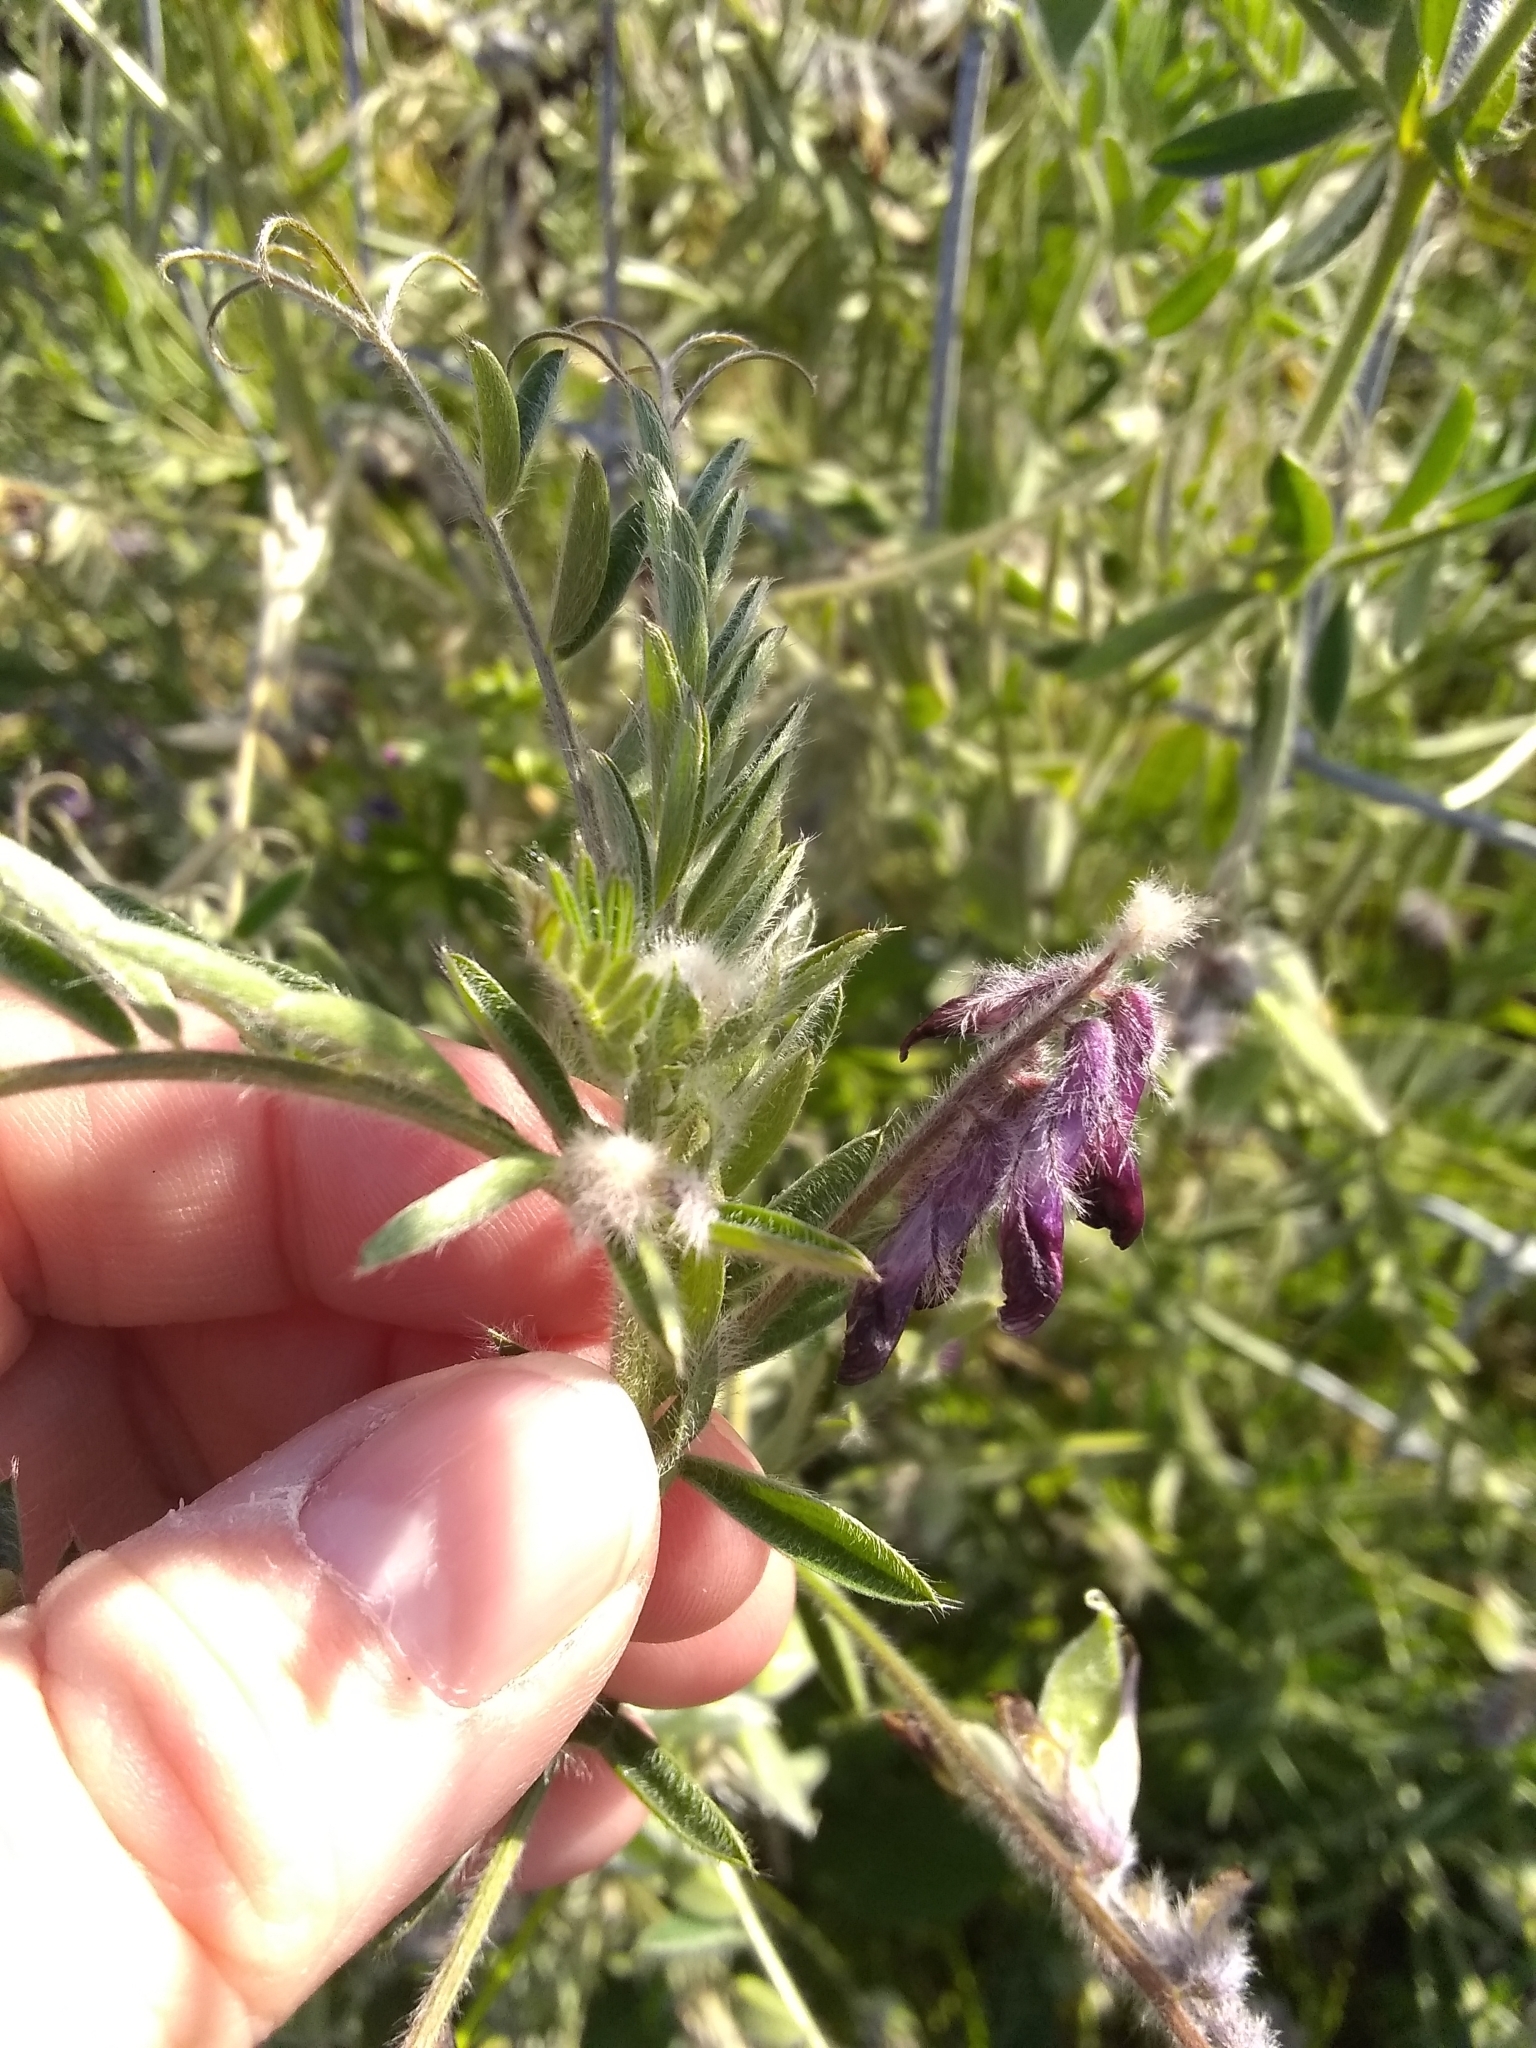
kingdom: Plantae
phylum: Tracheophyta
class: Magnoliopsida
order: Fabales
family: Fabaceae
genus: Vicia
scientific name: Vicia benghalensis
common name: Purple vetch
